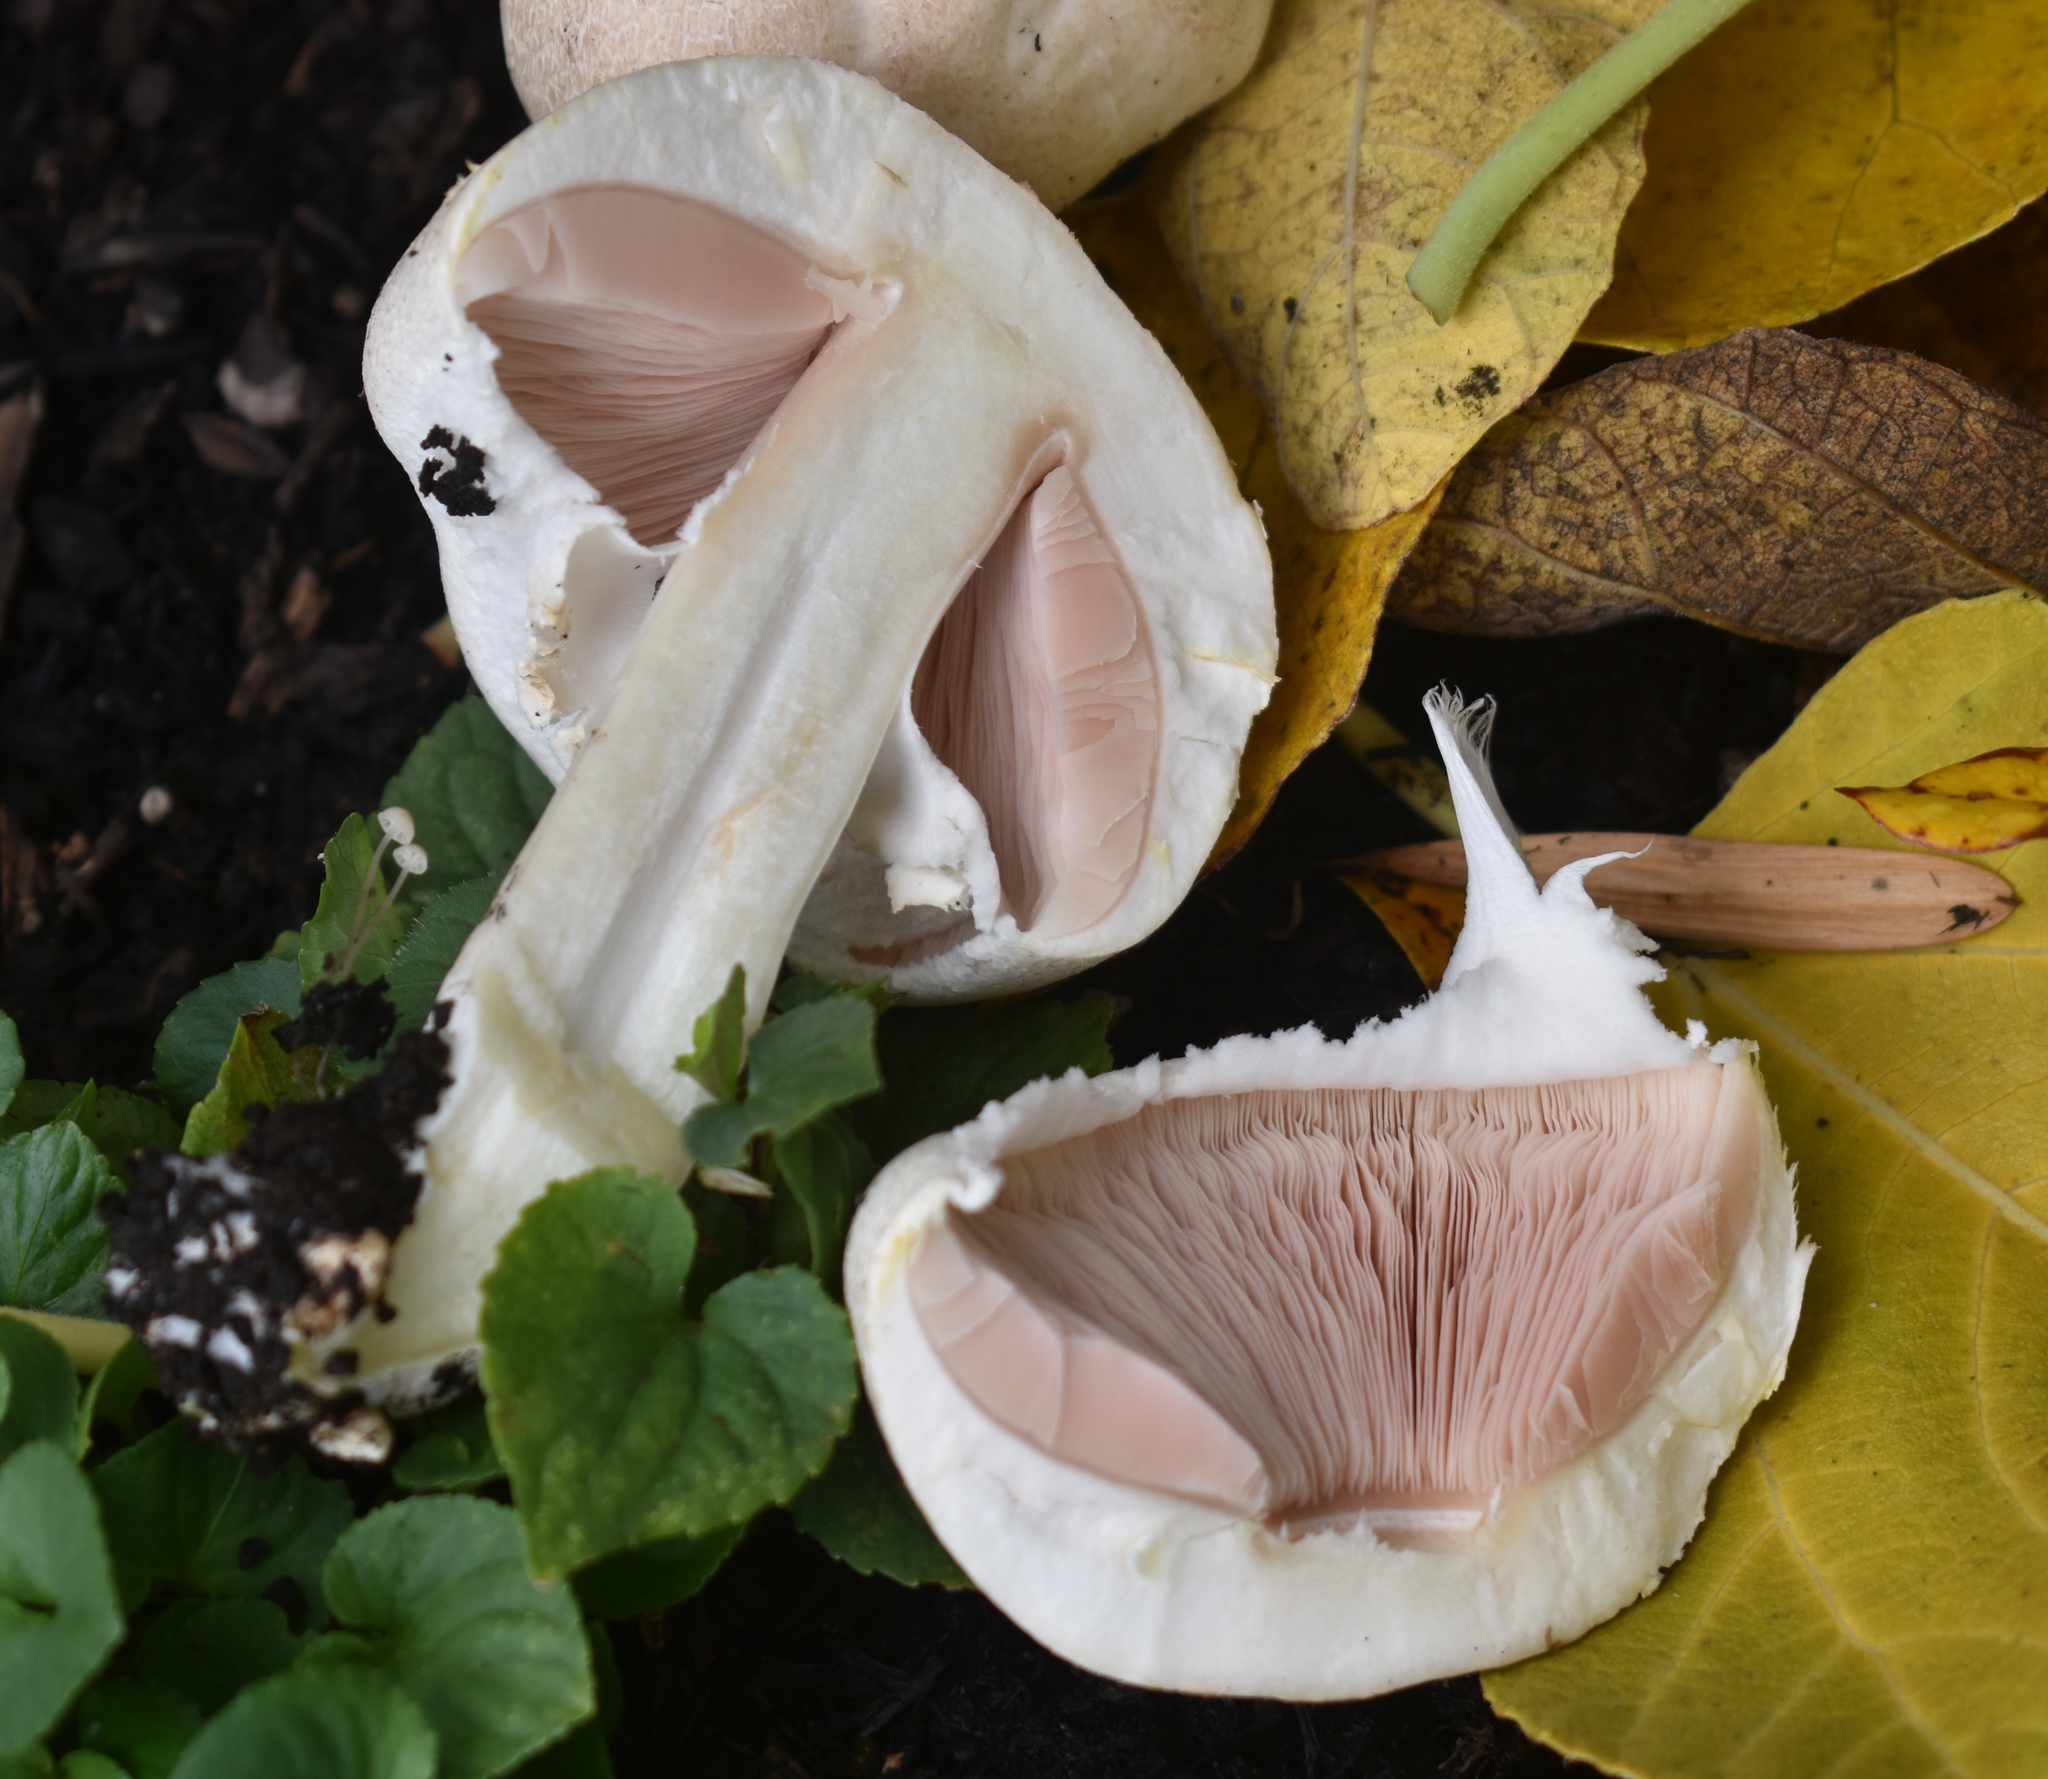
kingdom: Fungi
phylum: Basidiomycota
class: Agaricomycetes
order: Agaricales
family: Agaricaceae
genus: Agaricus
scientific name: Agaricus xanthodermus
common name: Yellow stainer
